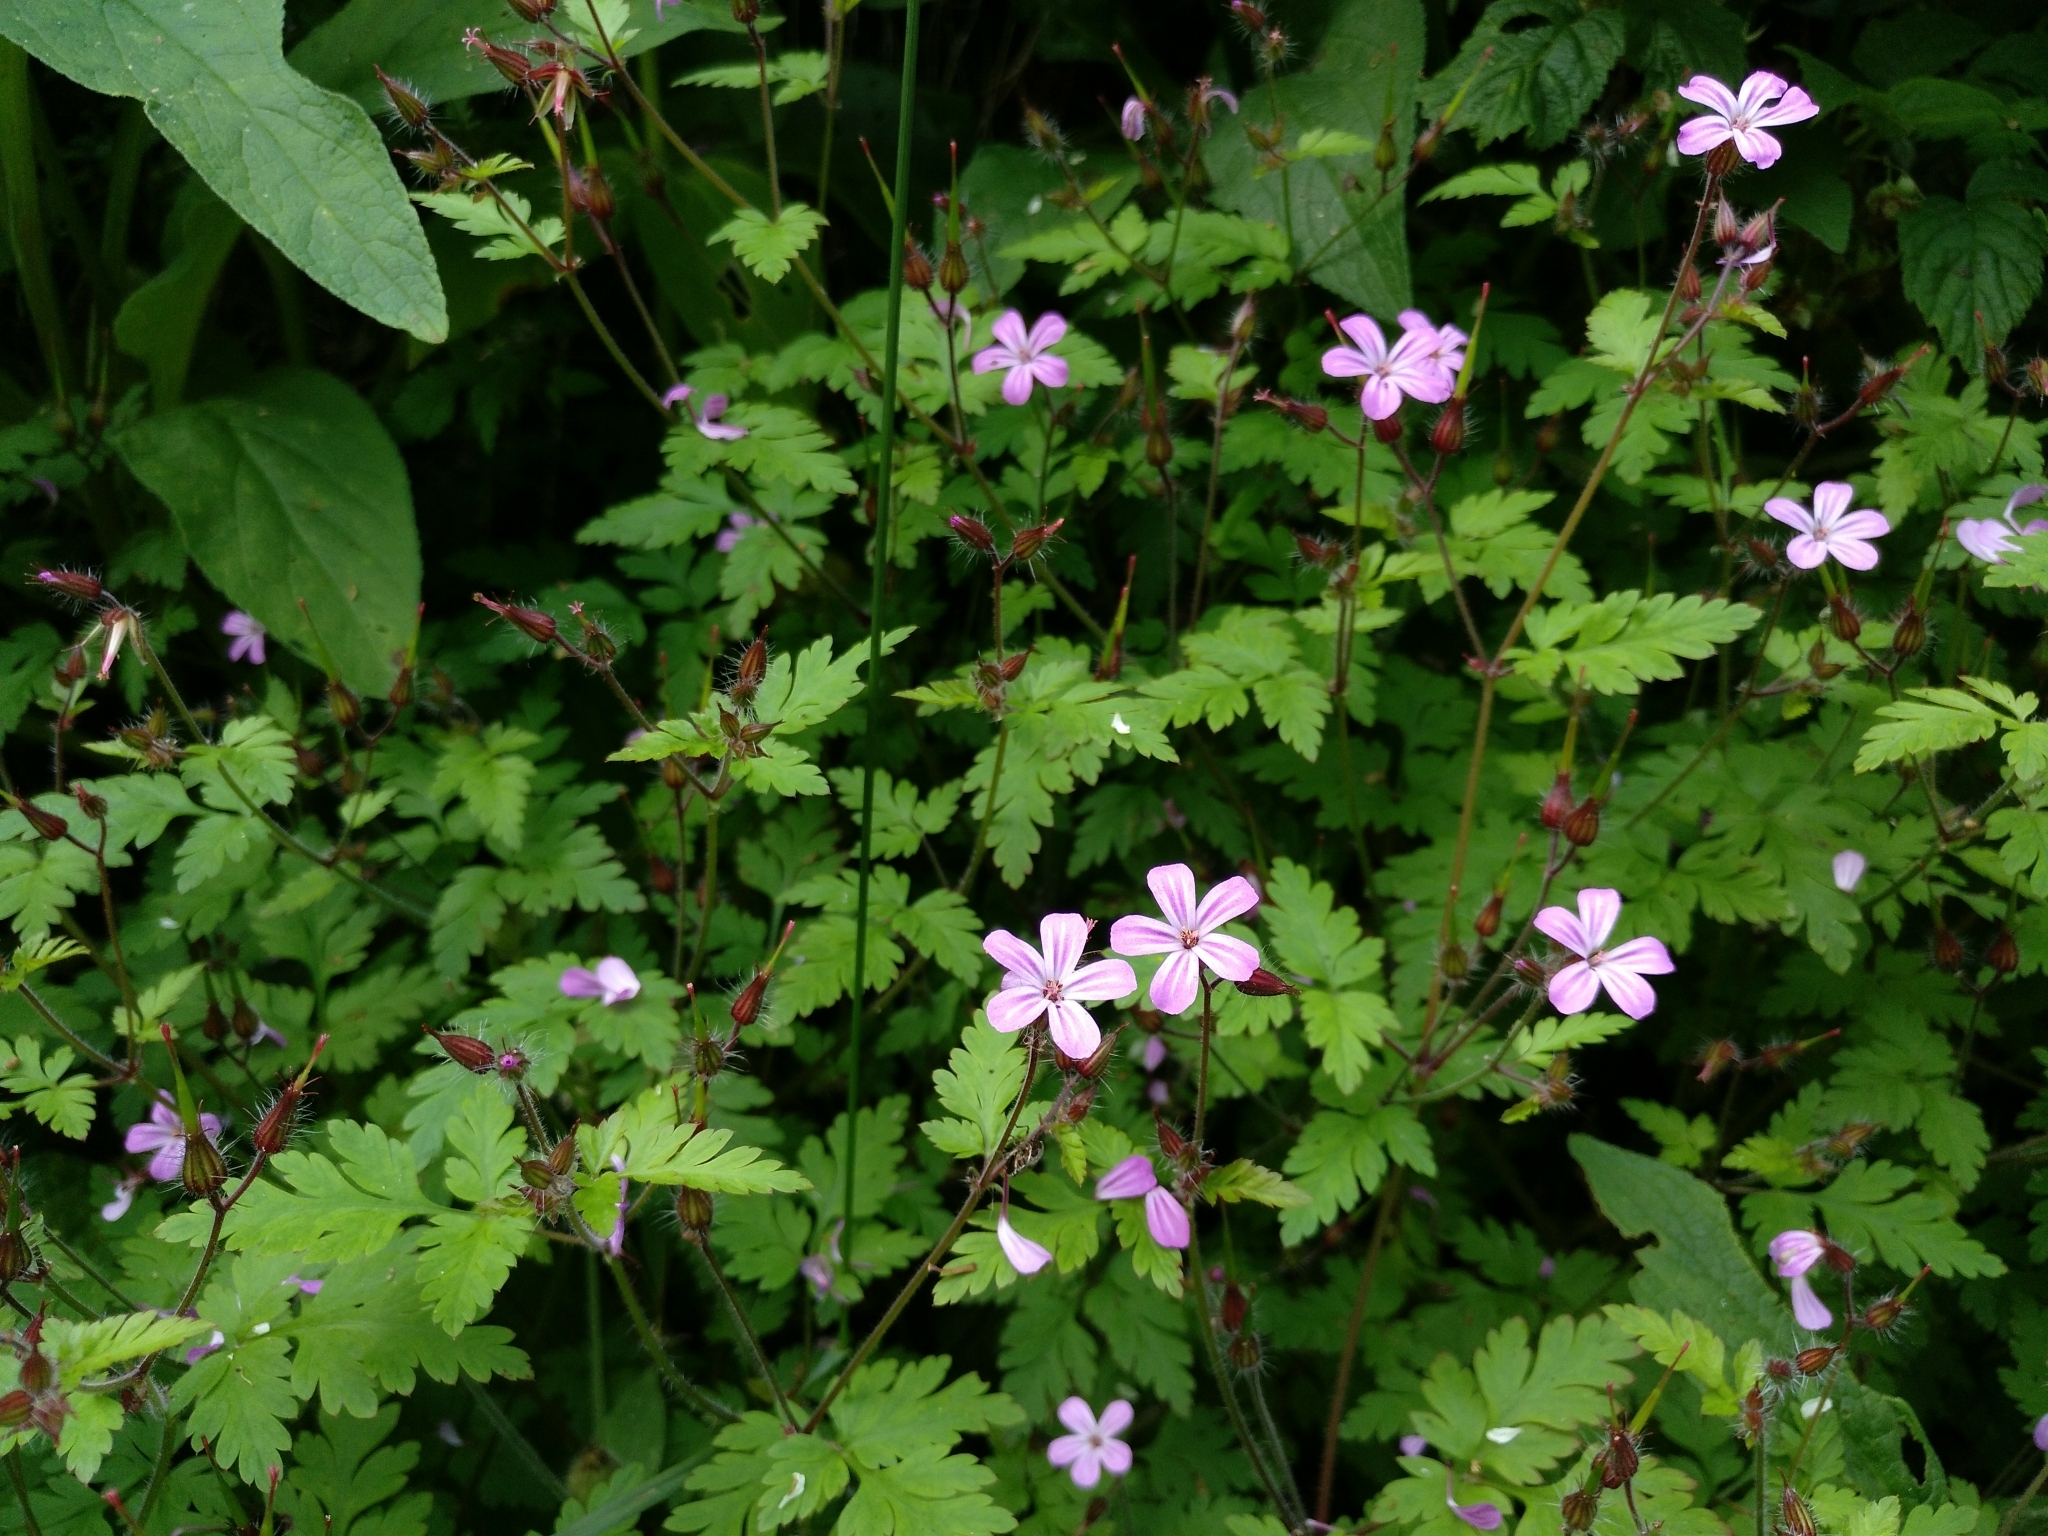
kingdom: Plantae
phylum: Tracheophyta
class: Magnoliopsida
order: Geraniales
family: Geraniaceae
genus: Geranium
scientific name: Geranium robertianum
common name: Herb-robert
